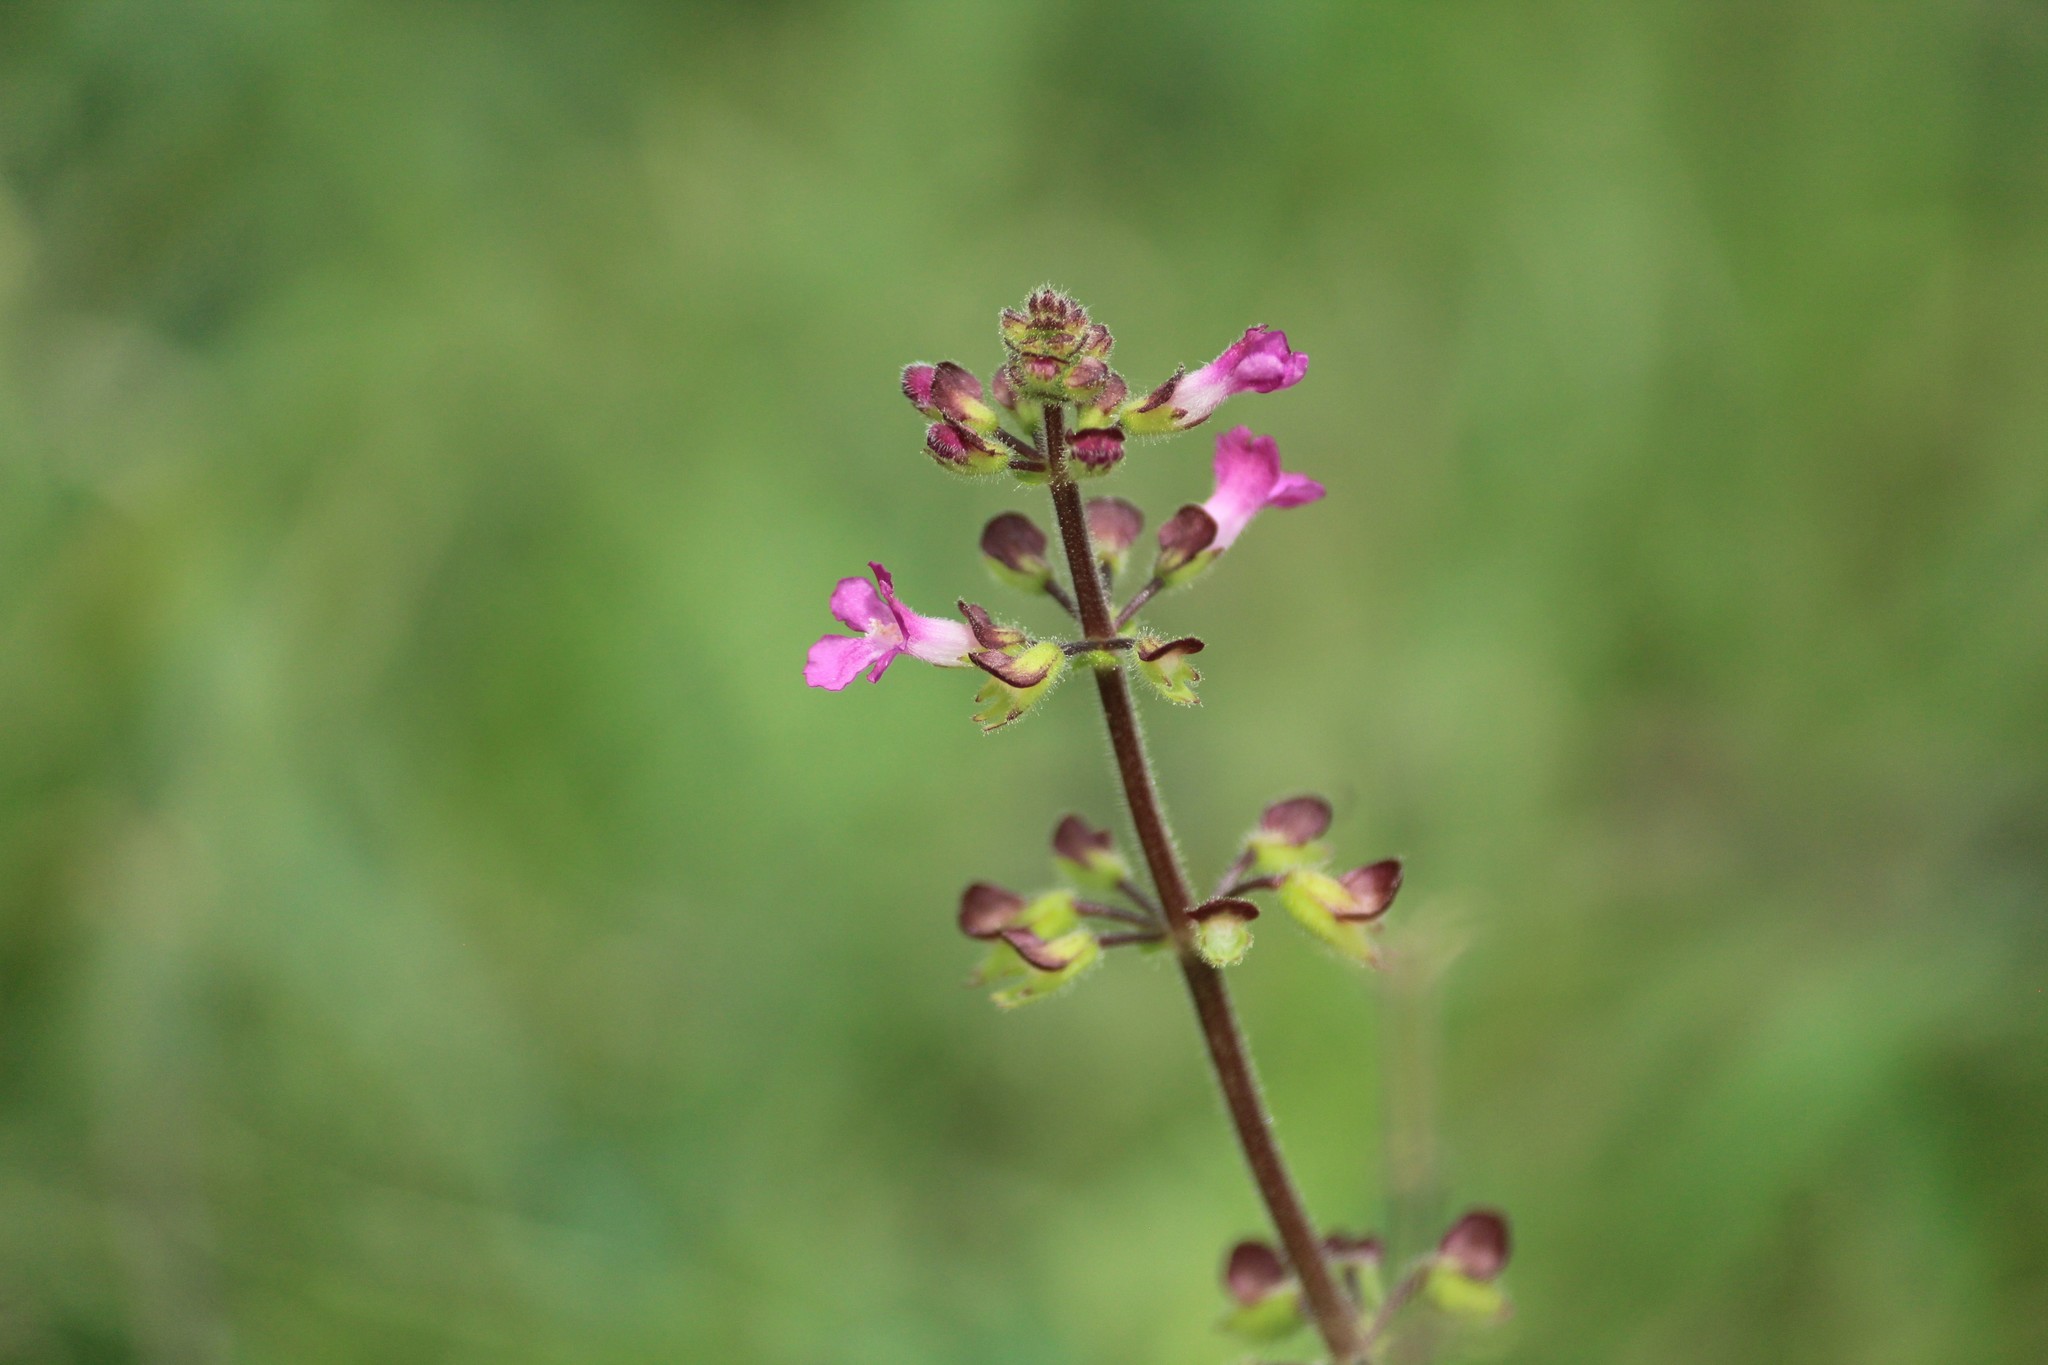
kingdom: Plantae
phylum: Tracheophyta
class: Magnoliopsida
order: Lamiales
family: Lamiaceae
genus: Endostemon
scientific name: Endostemon viscosus
